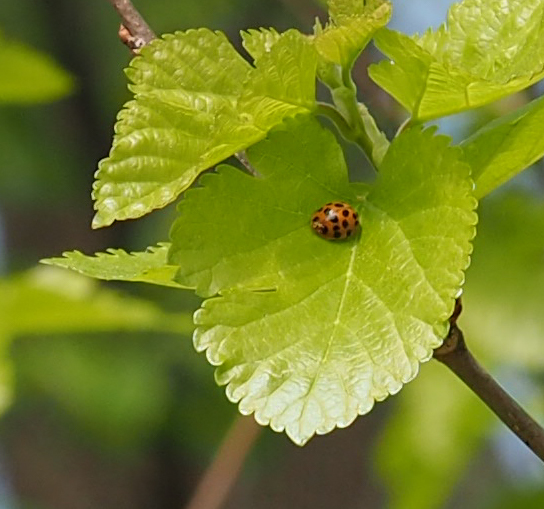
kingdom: Animalia
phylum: Arthropoda
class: Insecta
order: Coleoptera
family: Coccinellidae
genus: Harmonia
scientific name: Harmonia axyridis
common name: Harlequin ladybird
